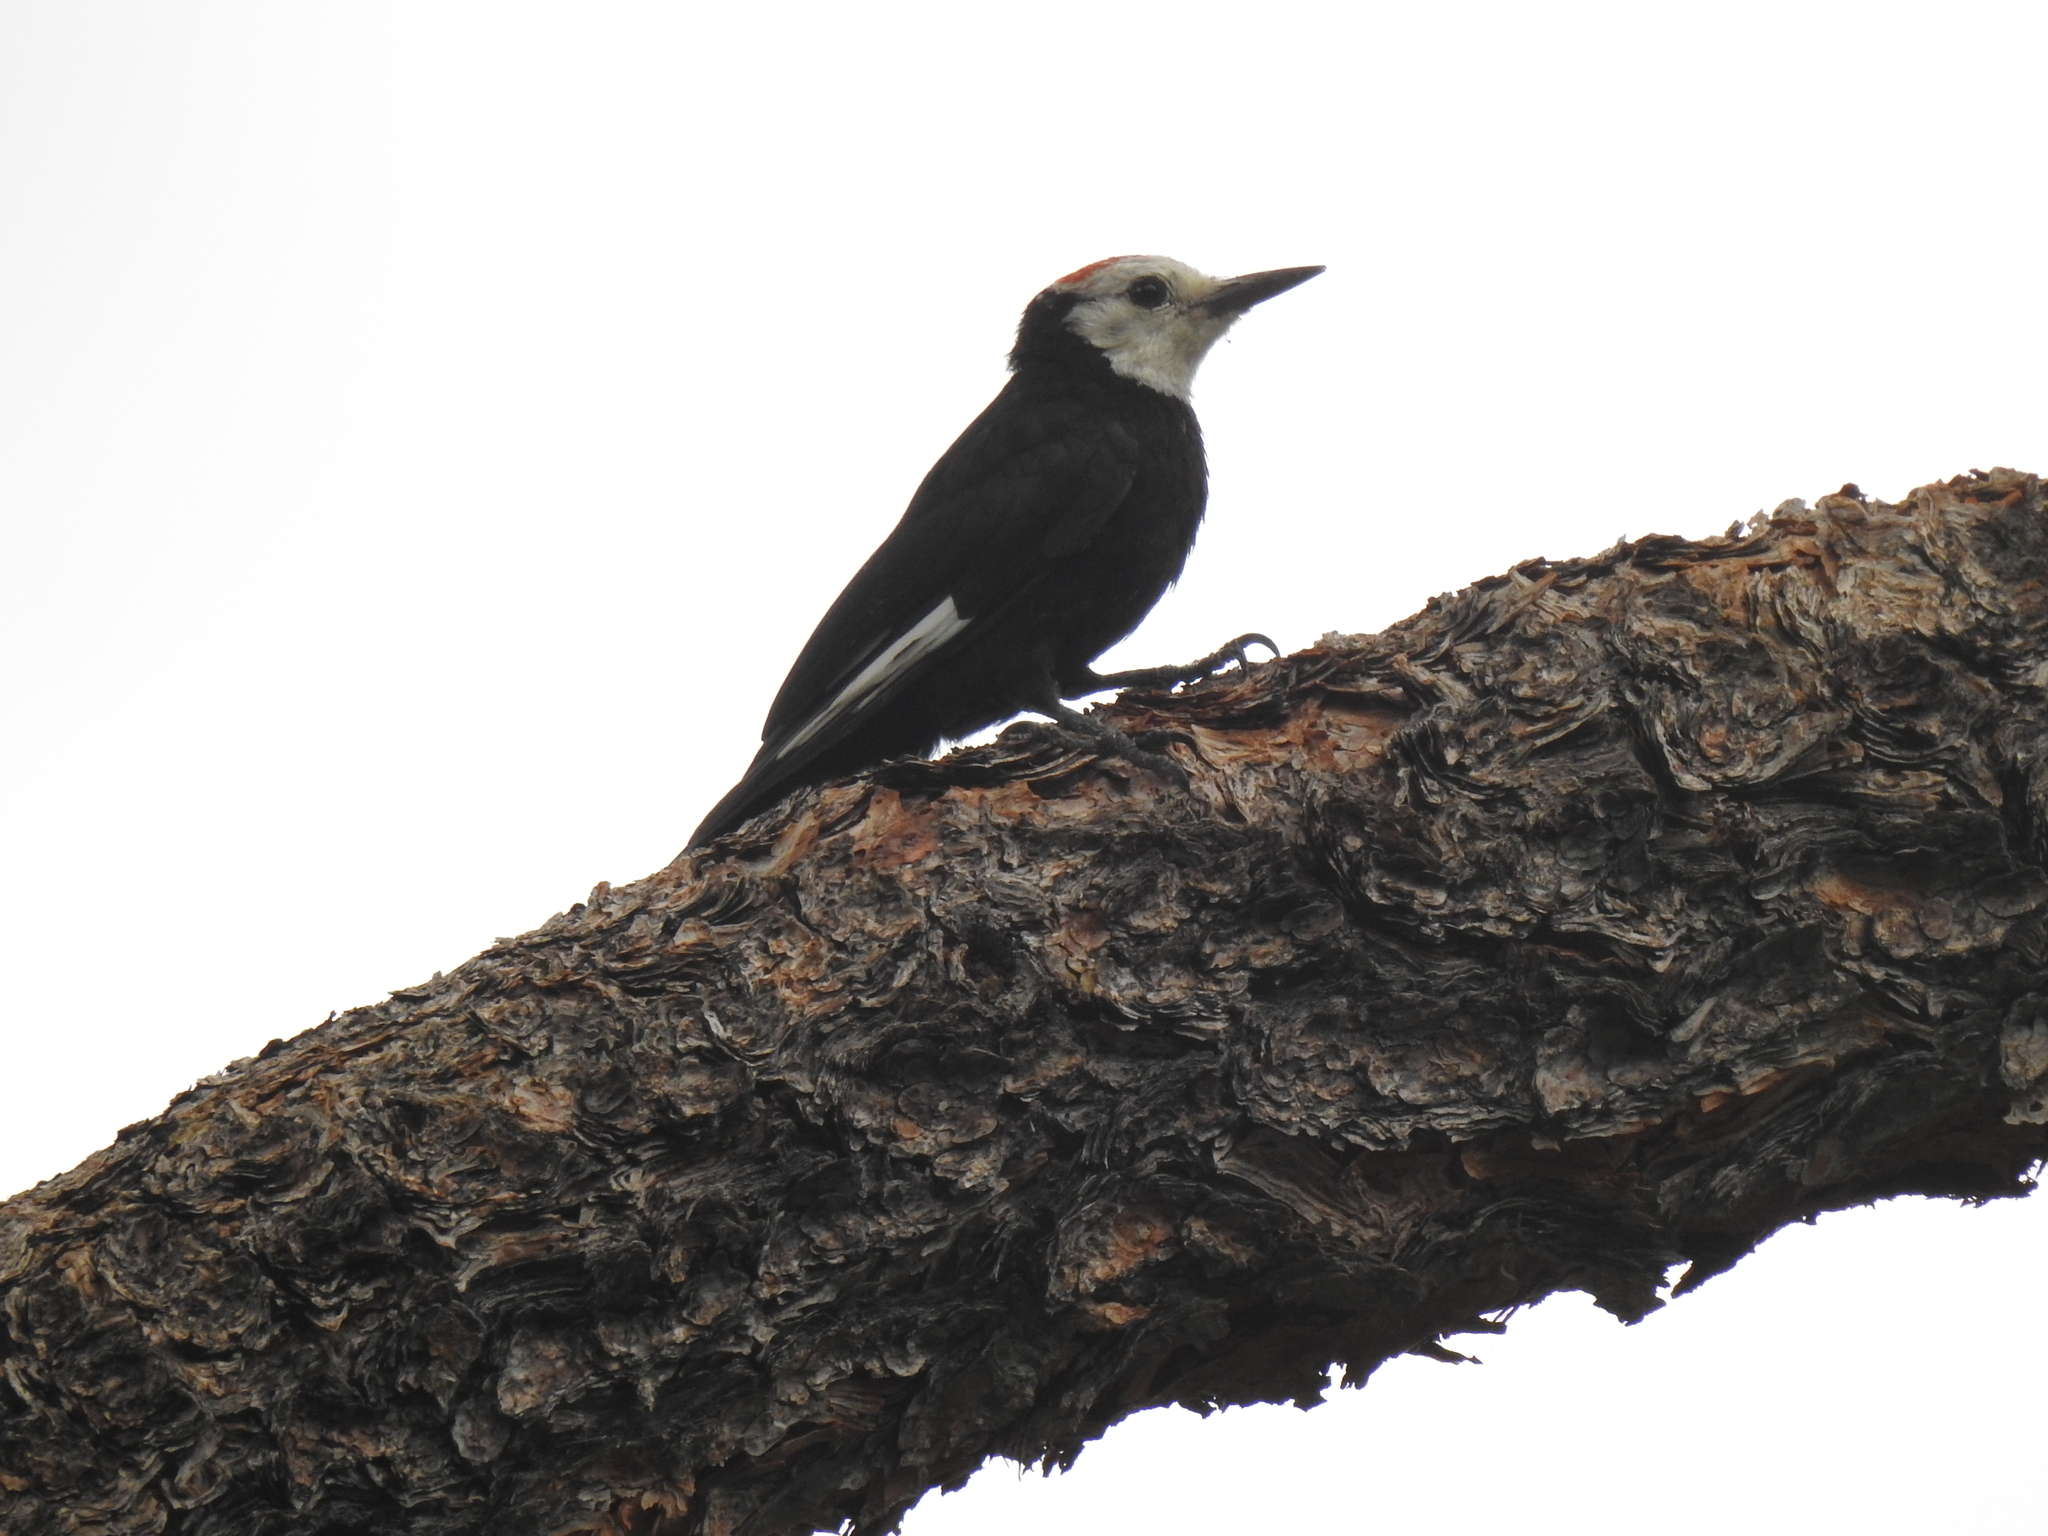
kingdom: Animalia
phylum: Chordata
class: Aves
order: Piciformes
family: Picidae
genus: Leuconotopicus
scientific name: Leuconotopicus albolarvatus
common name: White-headed woodpecker
